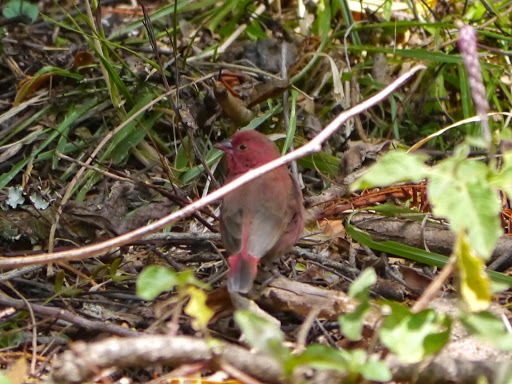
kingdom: Animalia
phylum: Chordata
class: Aves
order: Passeriformes
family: Estrildidae
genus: Lagonosticta
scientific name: Lagonosticta senegala
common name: Red-billed firefinch
